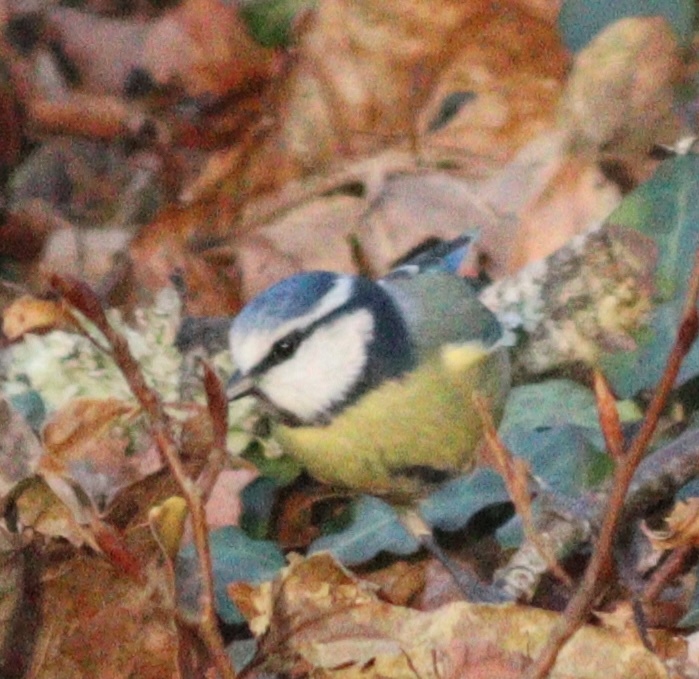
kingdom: Animalia
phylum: Chordata
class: Aves
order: Passeriformes
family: Paridae
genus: Cyanistes
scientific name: Cyanistes caeruleus
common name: Eurasian blue tit
